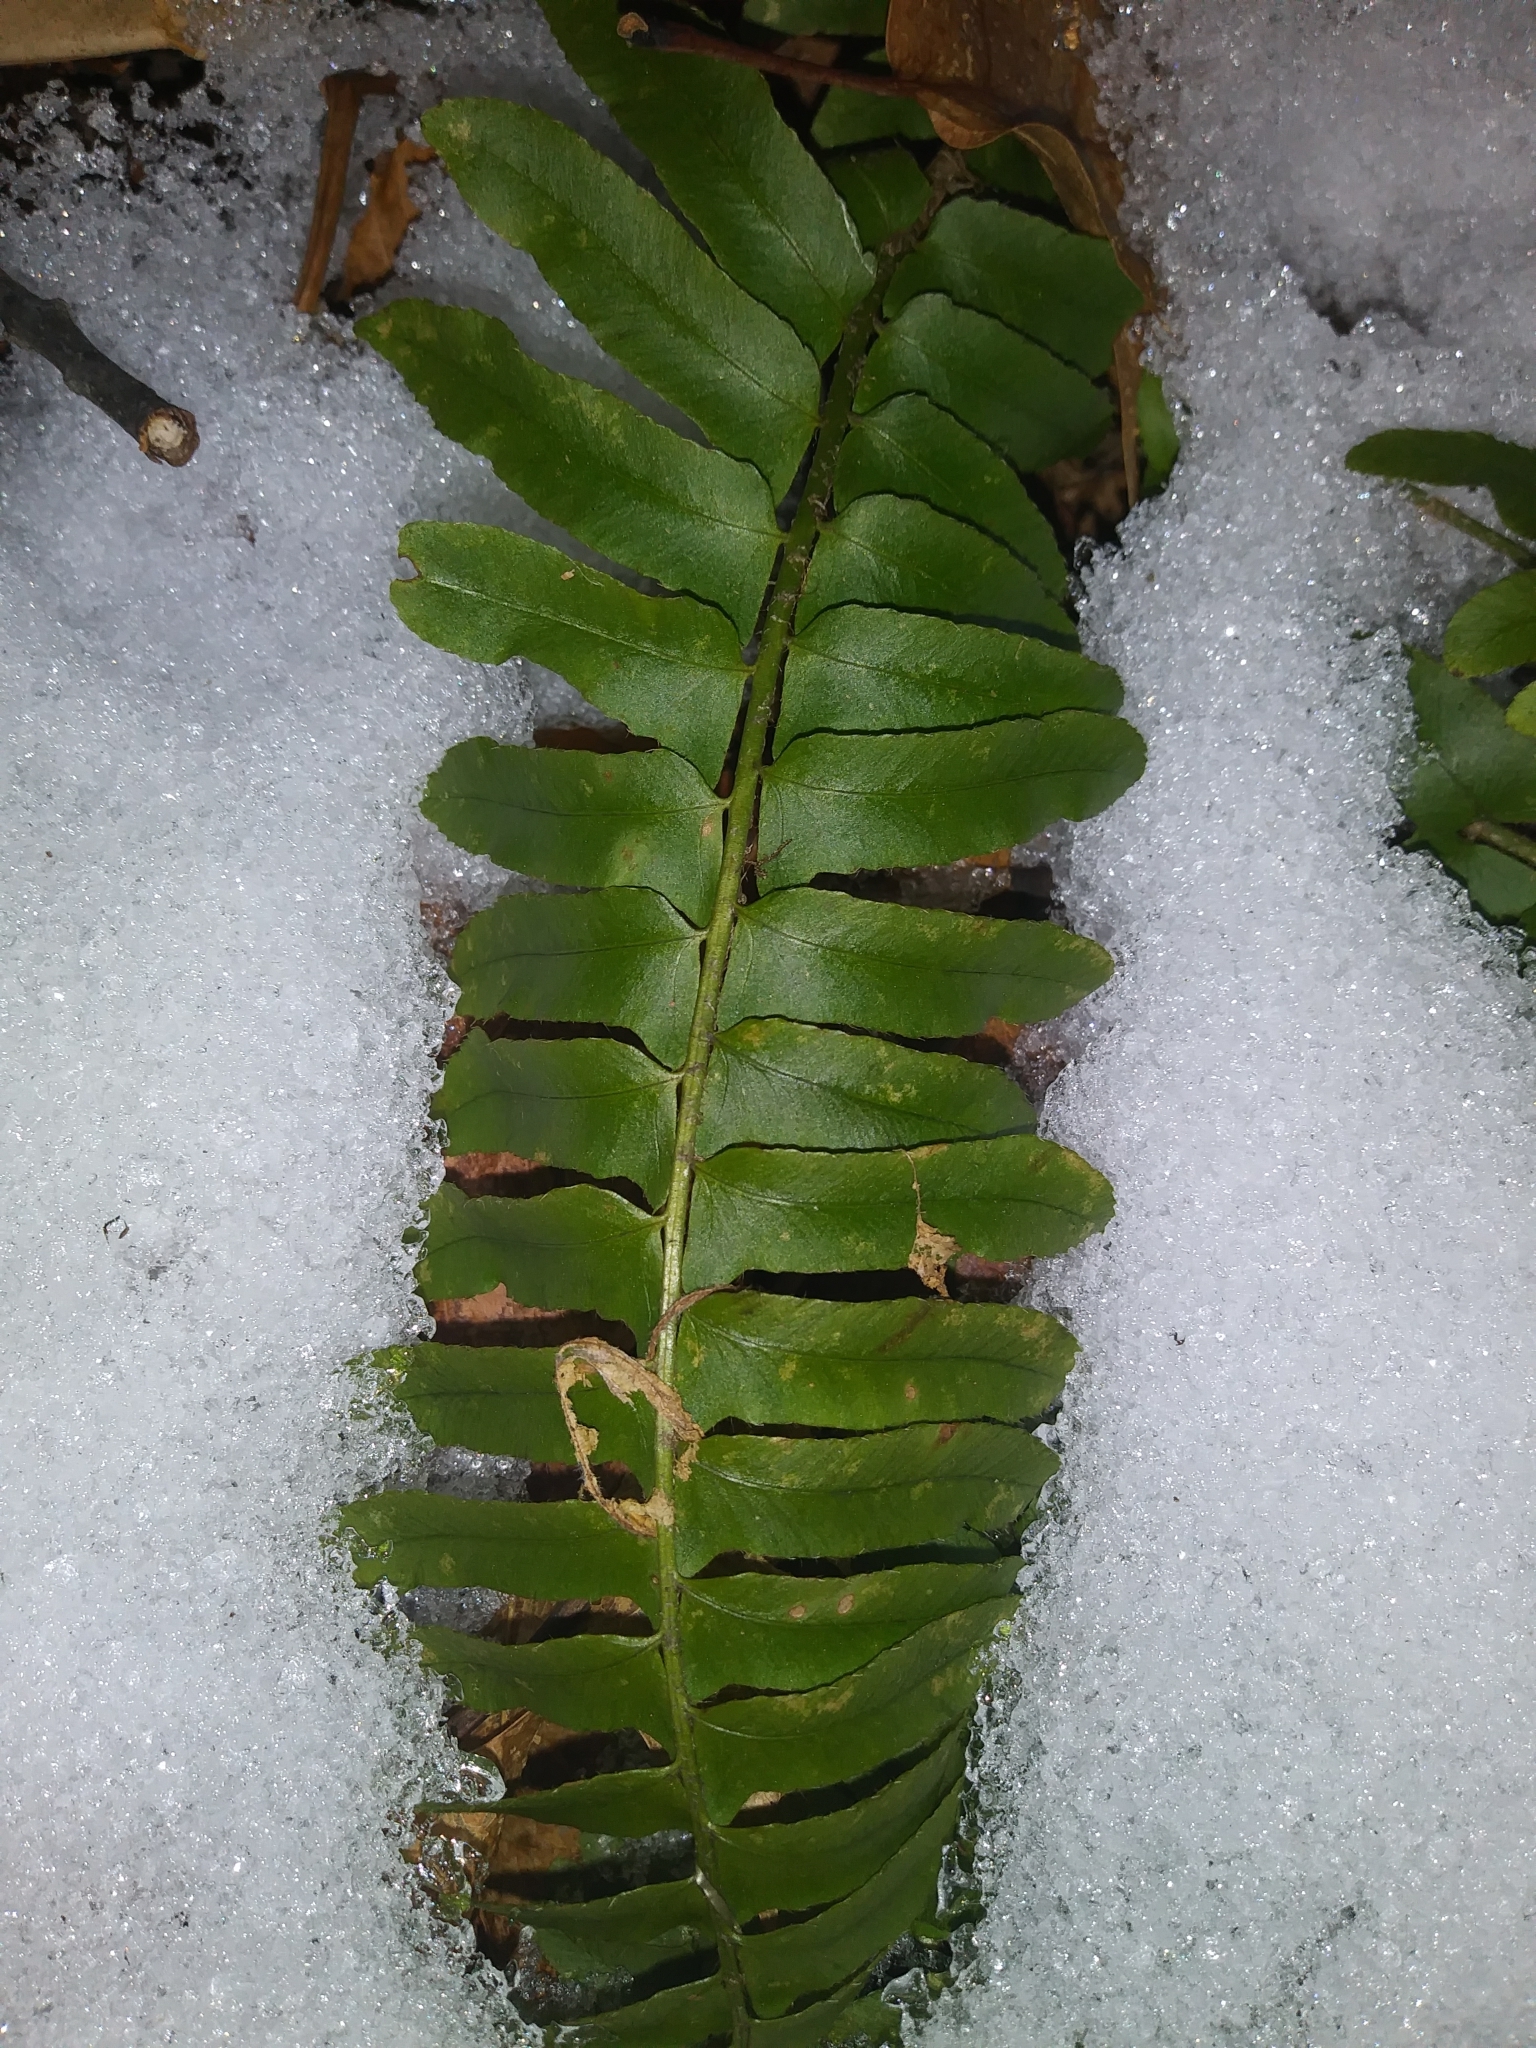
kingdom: Plantae
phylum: Tracheophyta
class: Polypodiopsida
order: Polypodiales
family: Dryopteridaceae
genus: Polystichum
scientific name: Polystichum acrostichoides
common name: Christmas fern
